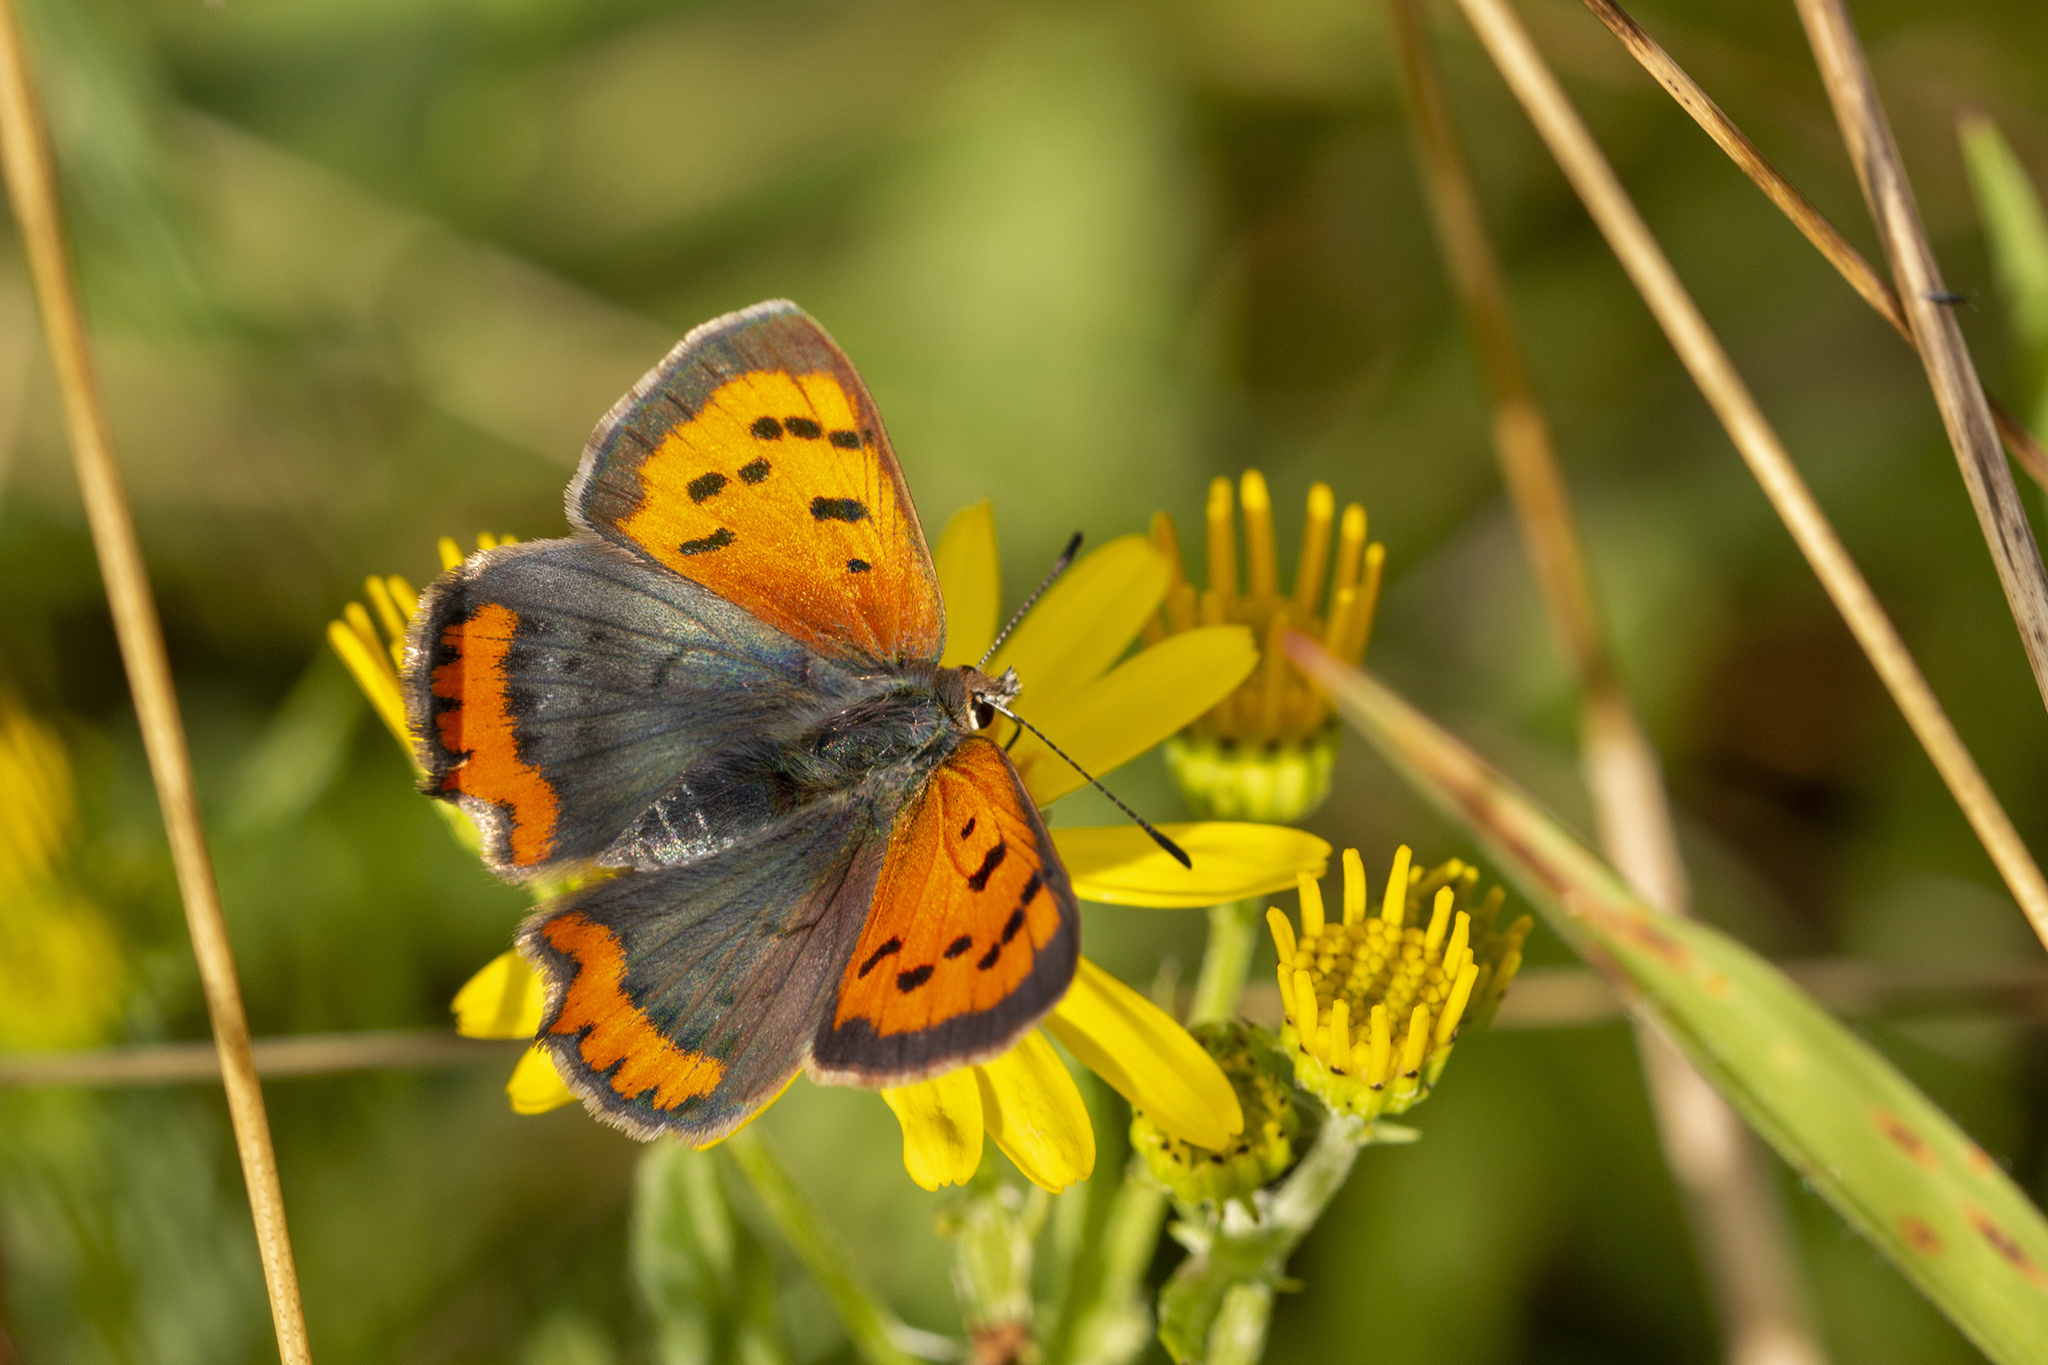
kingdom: Animalia
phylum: Arthropoda
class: Insecta
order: Lepidoptera
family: Lycaenidae
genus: Lycaena
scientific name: Lycaena phlaeas
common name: Small copper
